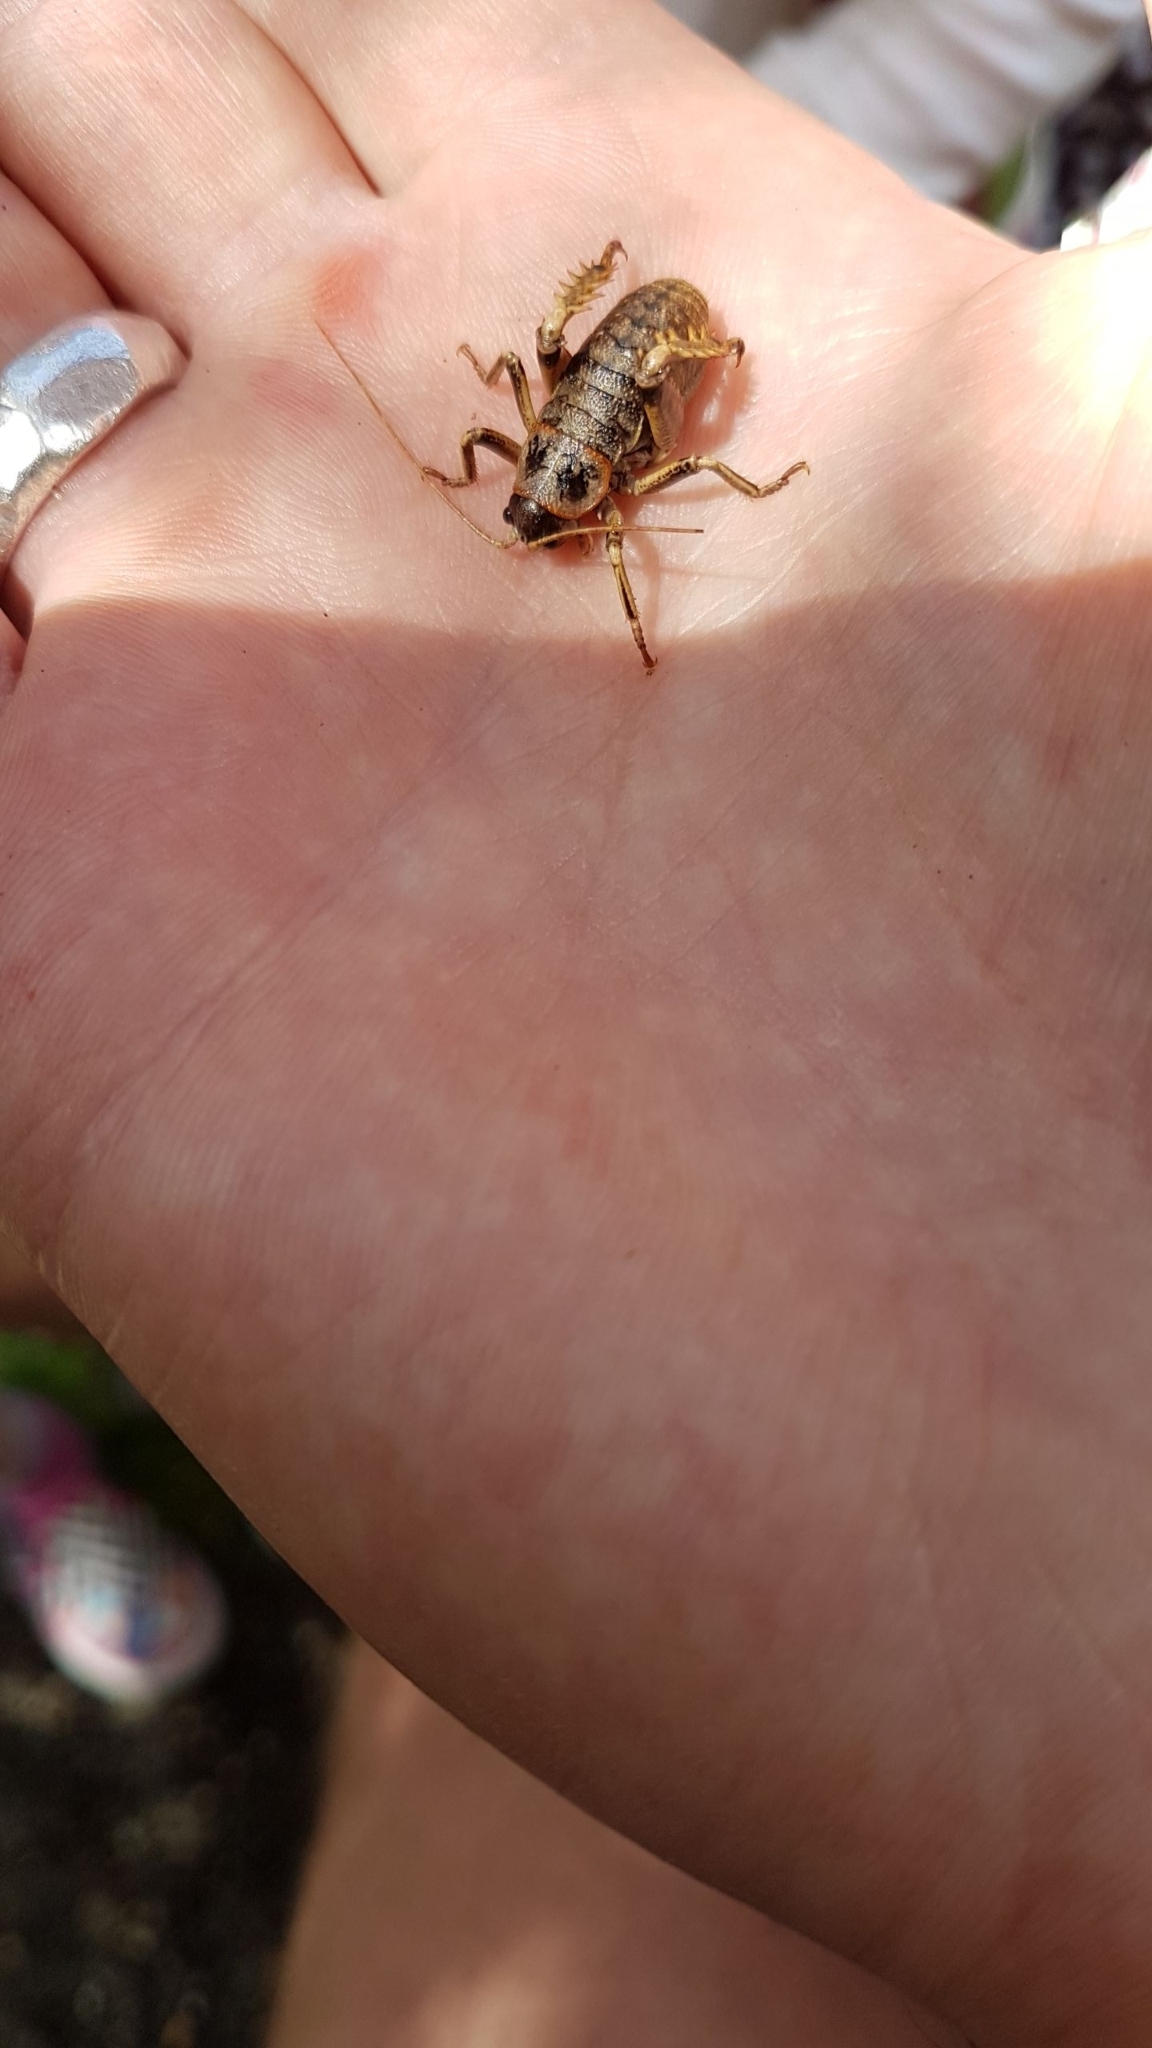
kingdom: Animalia
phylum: Arthropoda
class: Insecta
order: Orthoptera
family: Anostostomatidae
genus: Deinacrida
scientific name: Deinacrida rugosa
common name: Stephens island weta
